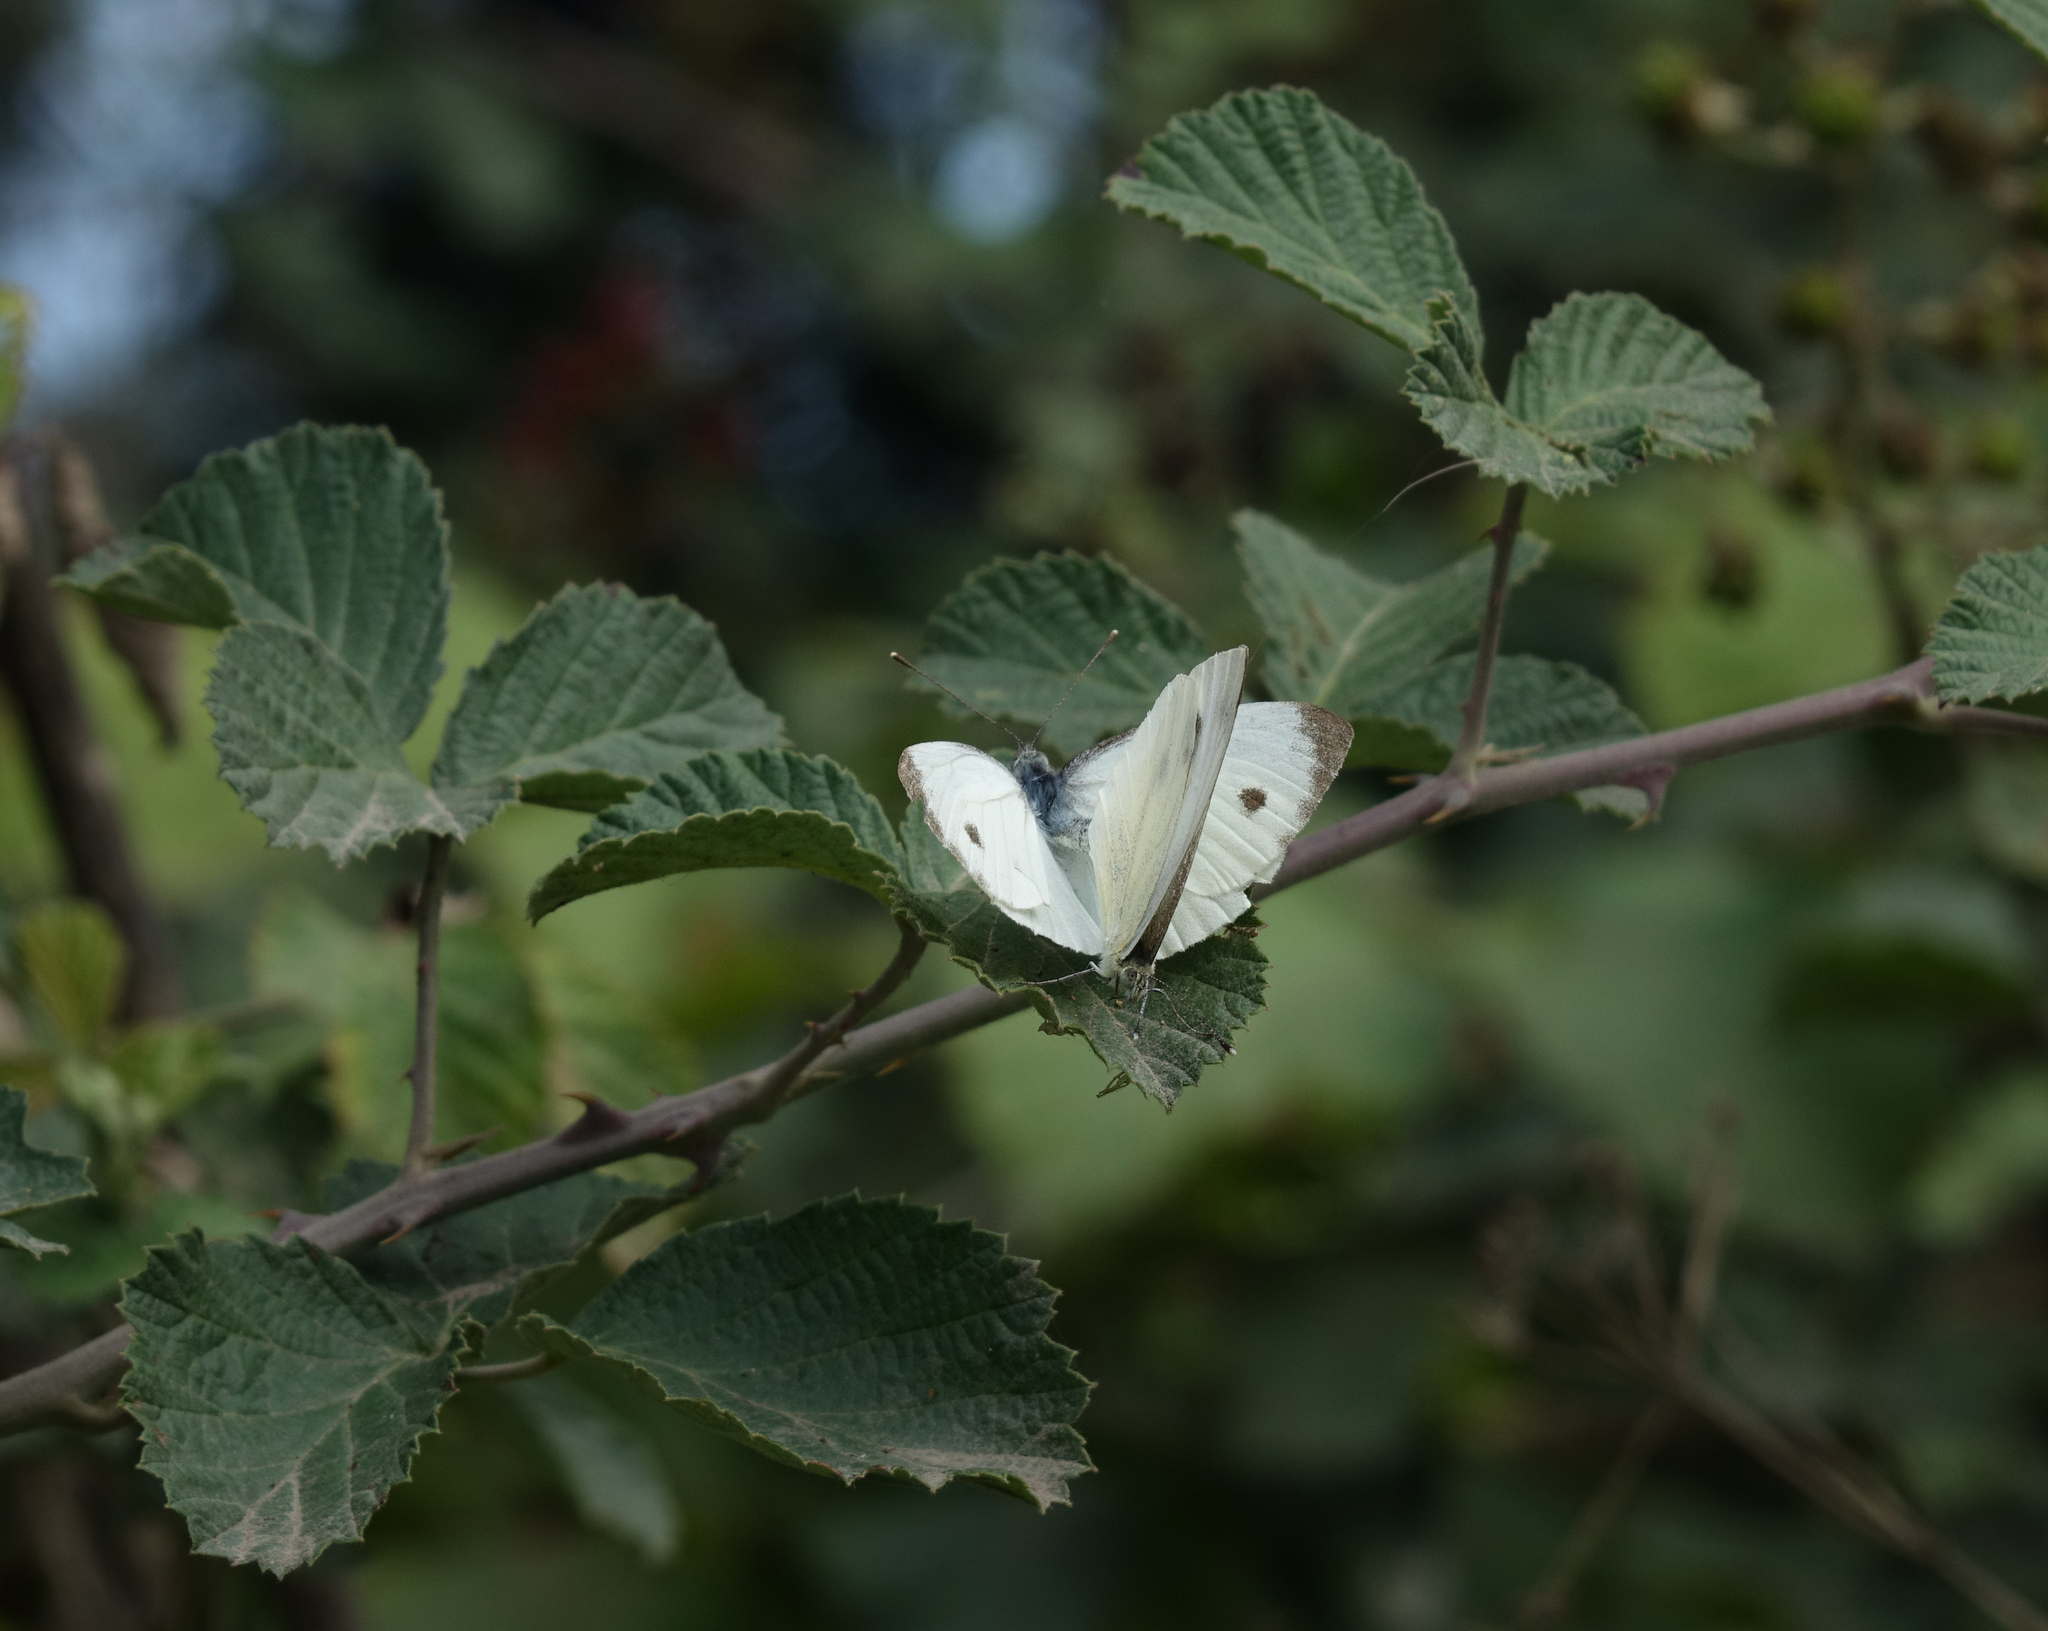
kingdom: Animalia
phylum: Arthropoda
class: Insecta
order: Lepidoptera
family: Pieridae
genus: Pieris
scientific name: Pieris rapae
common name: Small white
